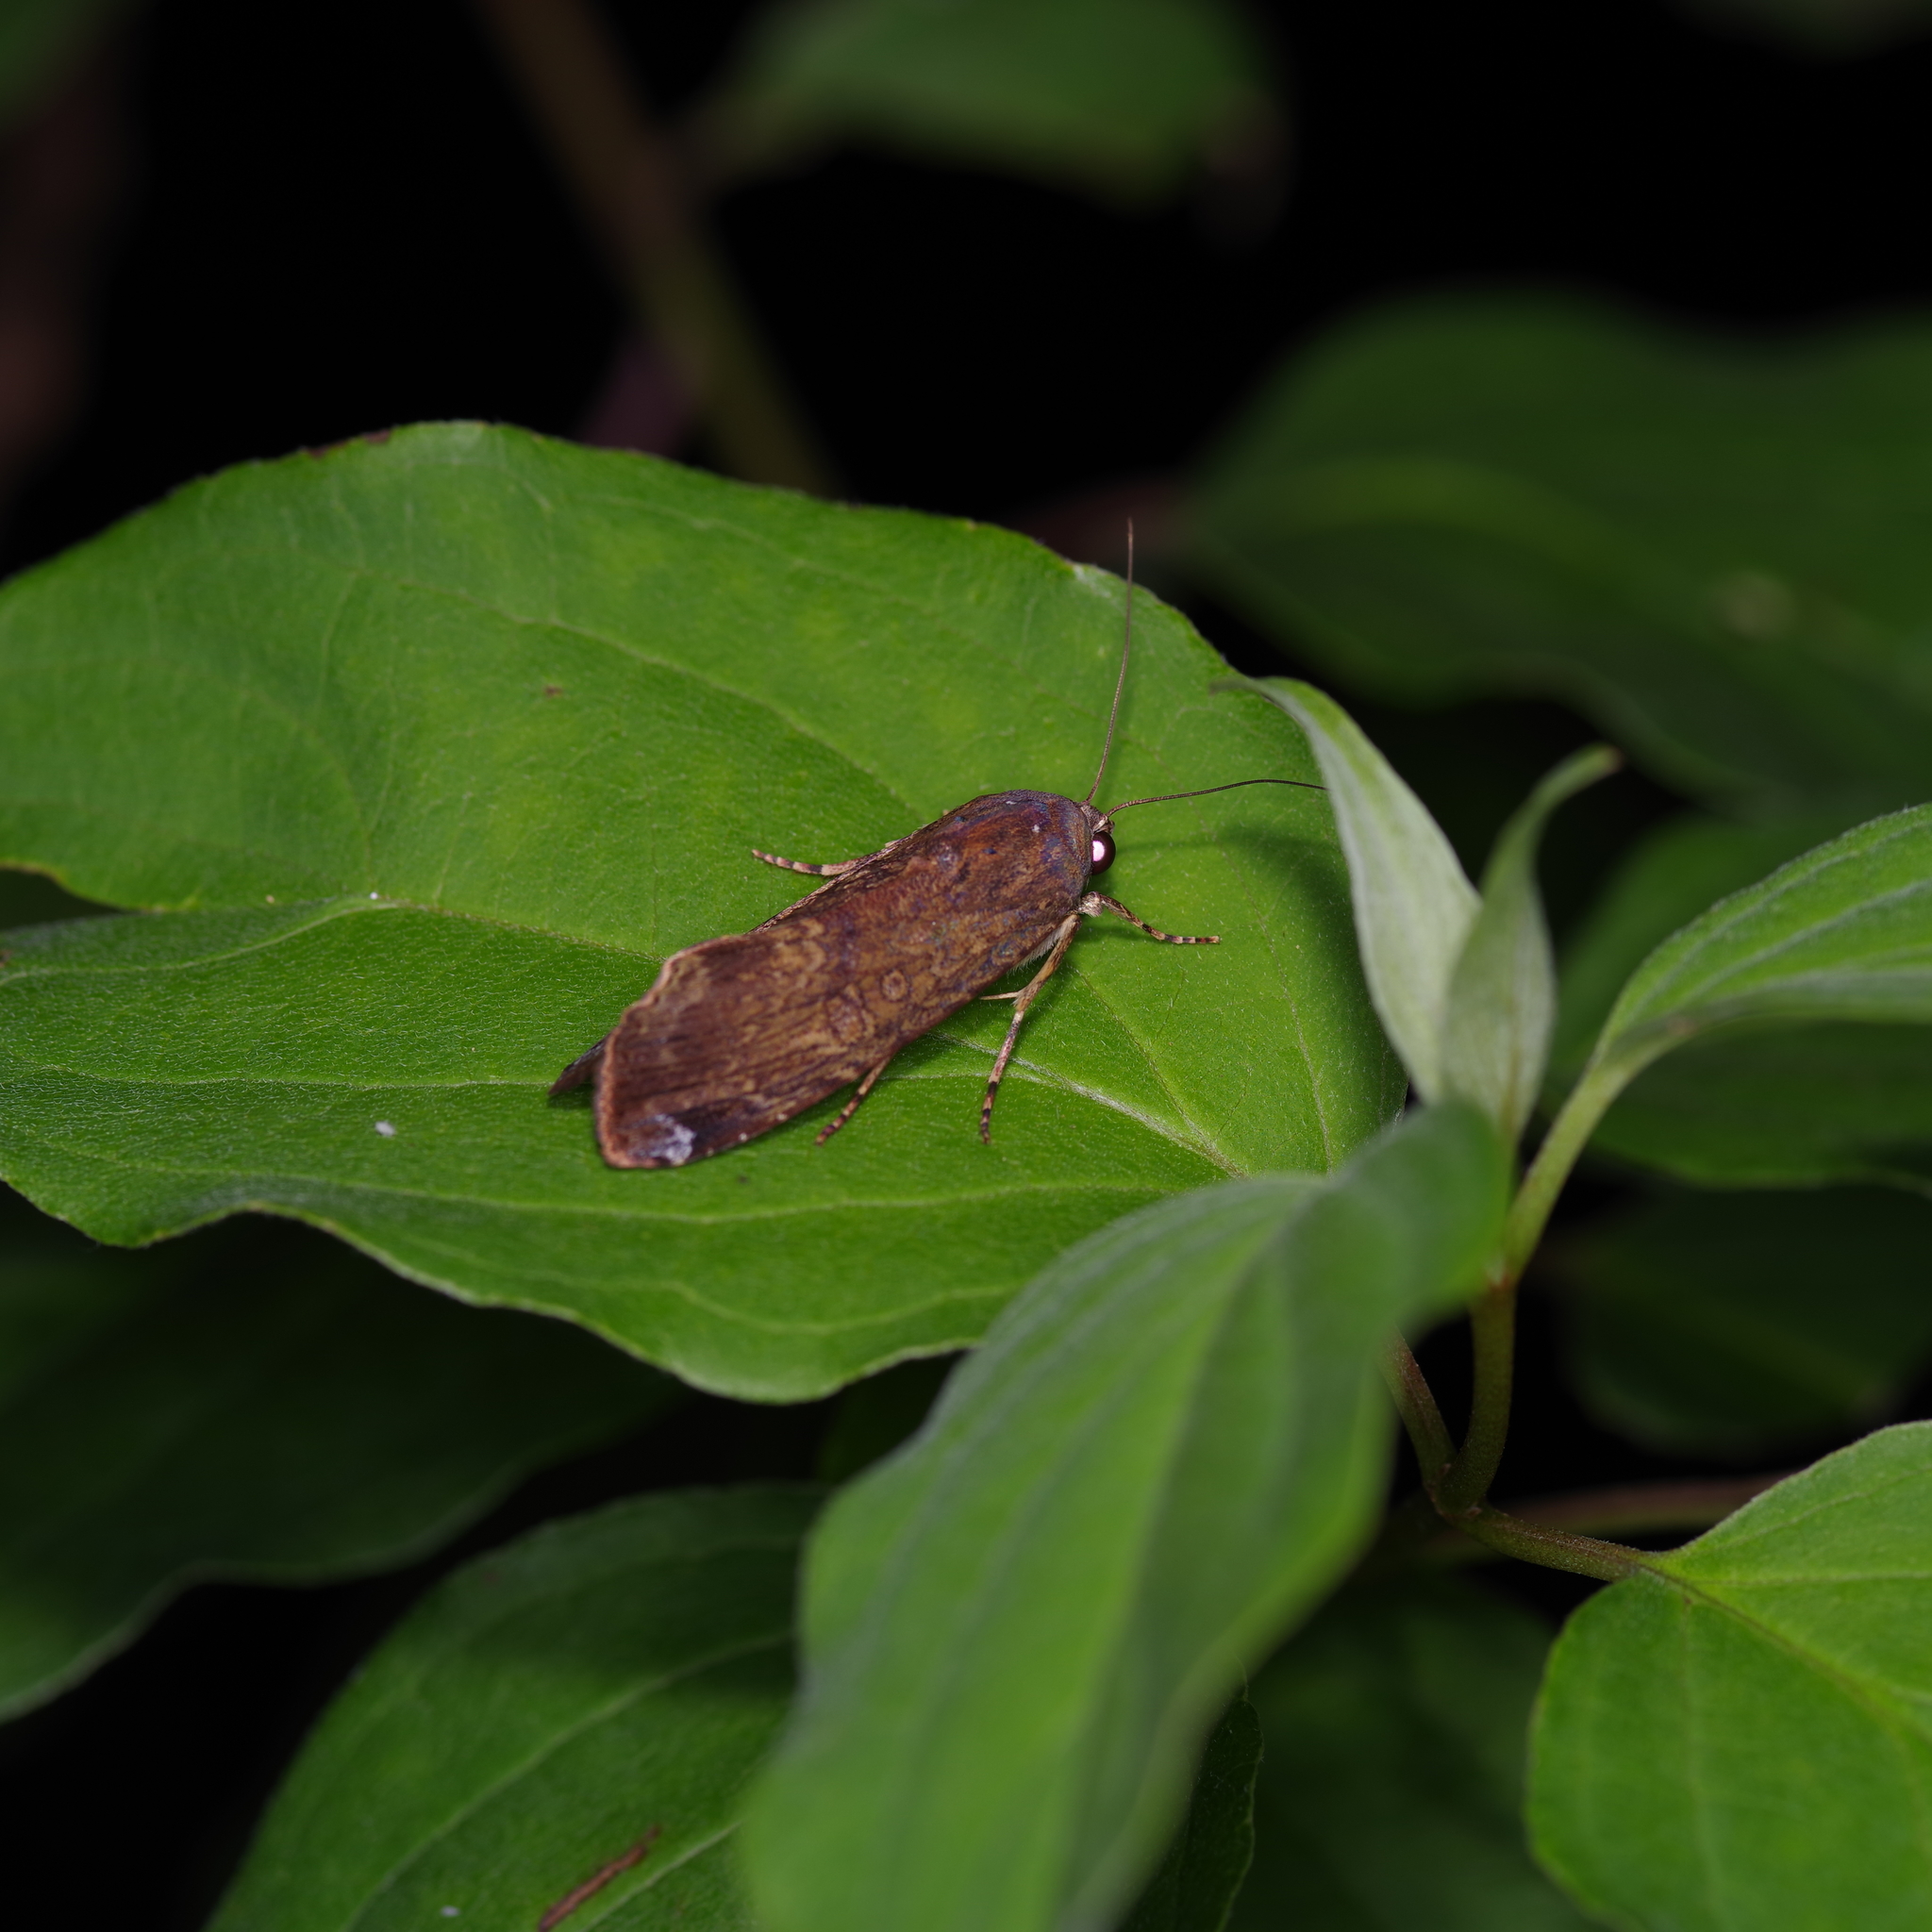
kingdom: Animalia
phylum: Arthropoda
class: Insecta
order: Lepidoptera
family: Noctuidae
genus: Magusa
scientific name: Magusa divaricata
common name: Orb narrow-winged moth
